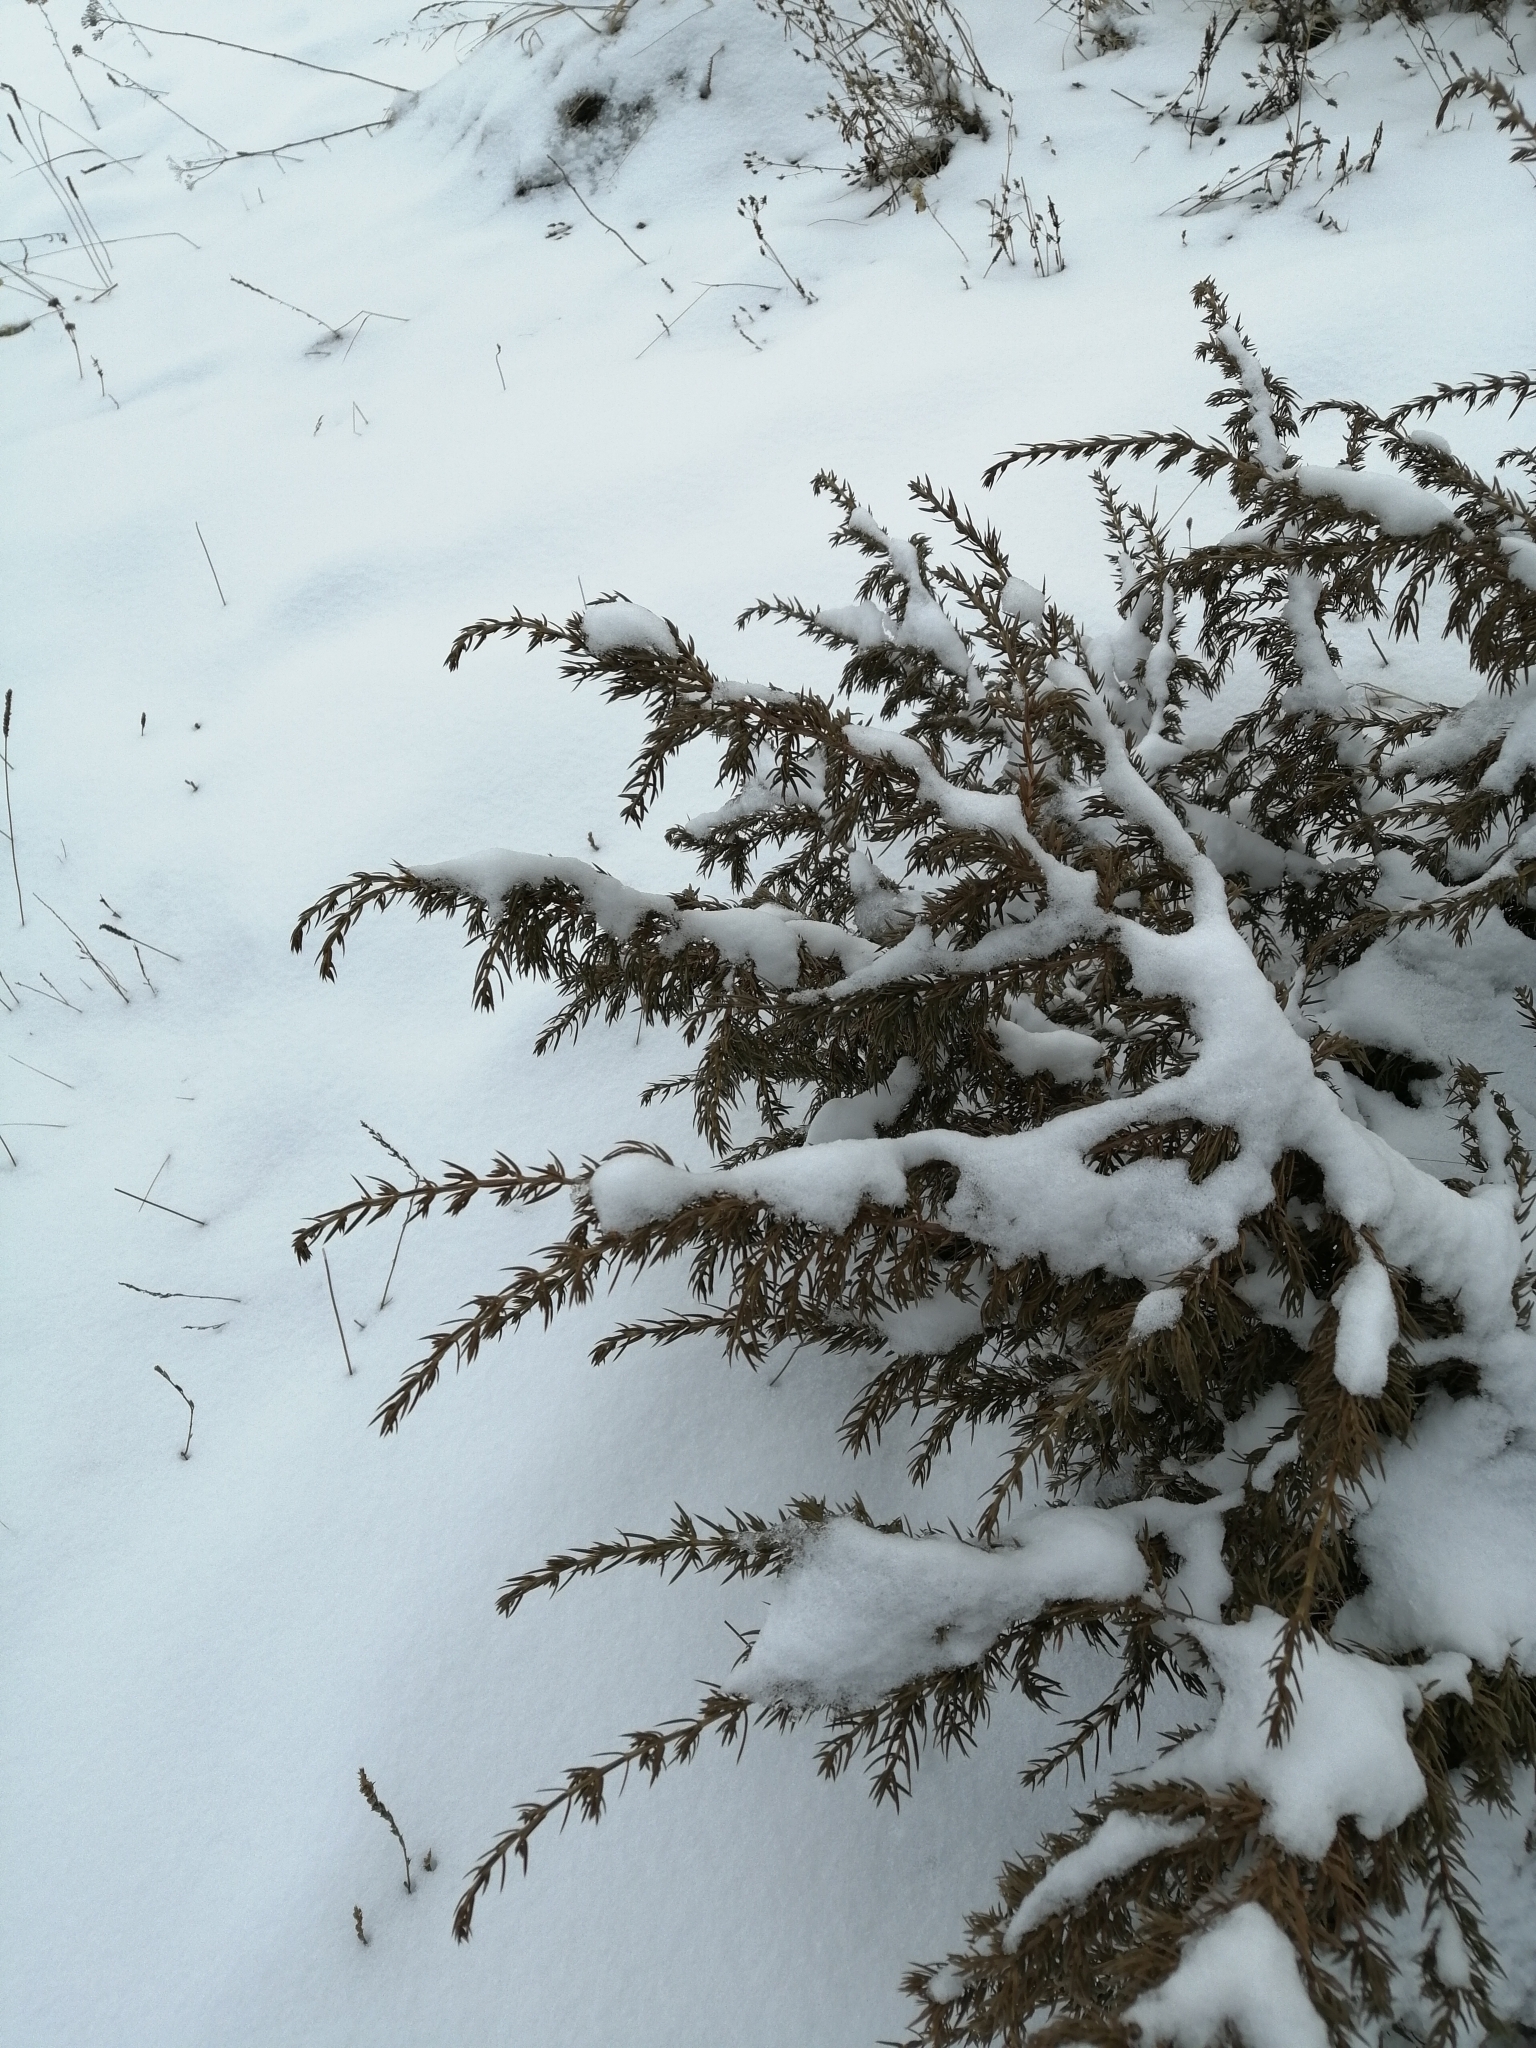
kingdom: Plantae
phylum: Tracheophyta
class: Pinopsida
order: Pinales
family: Cupressaceae
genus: Juniperus
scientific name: Juniperus communis
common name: Common juniper
